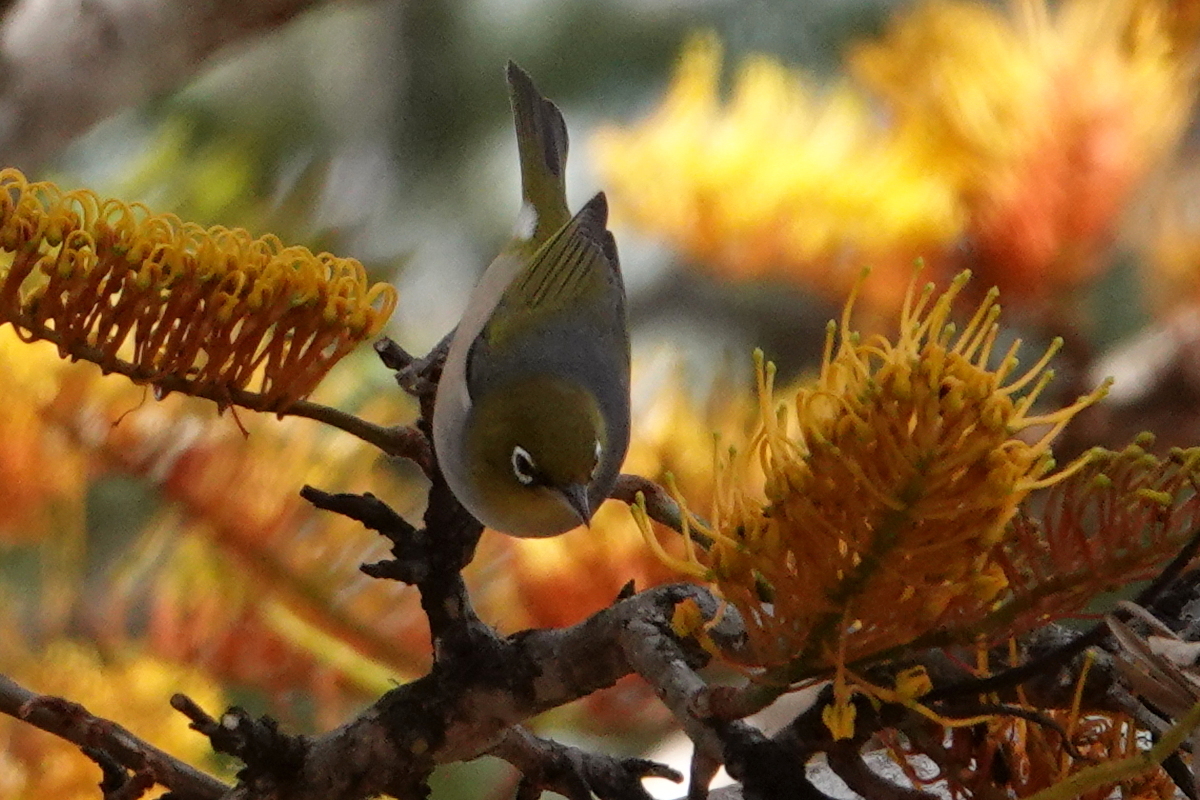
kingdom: Animalia
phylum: Chordata
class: Aves
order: Passeriformes
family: Zosteropidae
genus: Zosterops
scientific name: Zosterops lateralis
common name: Silvereye
